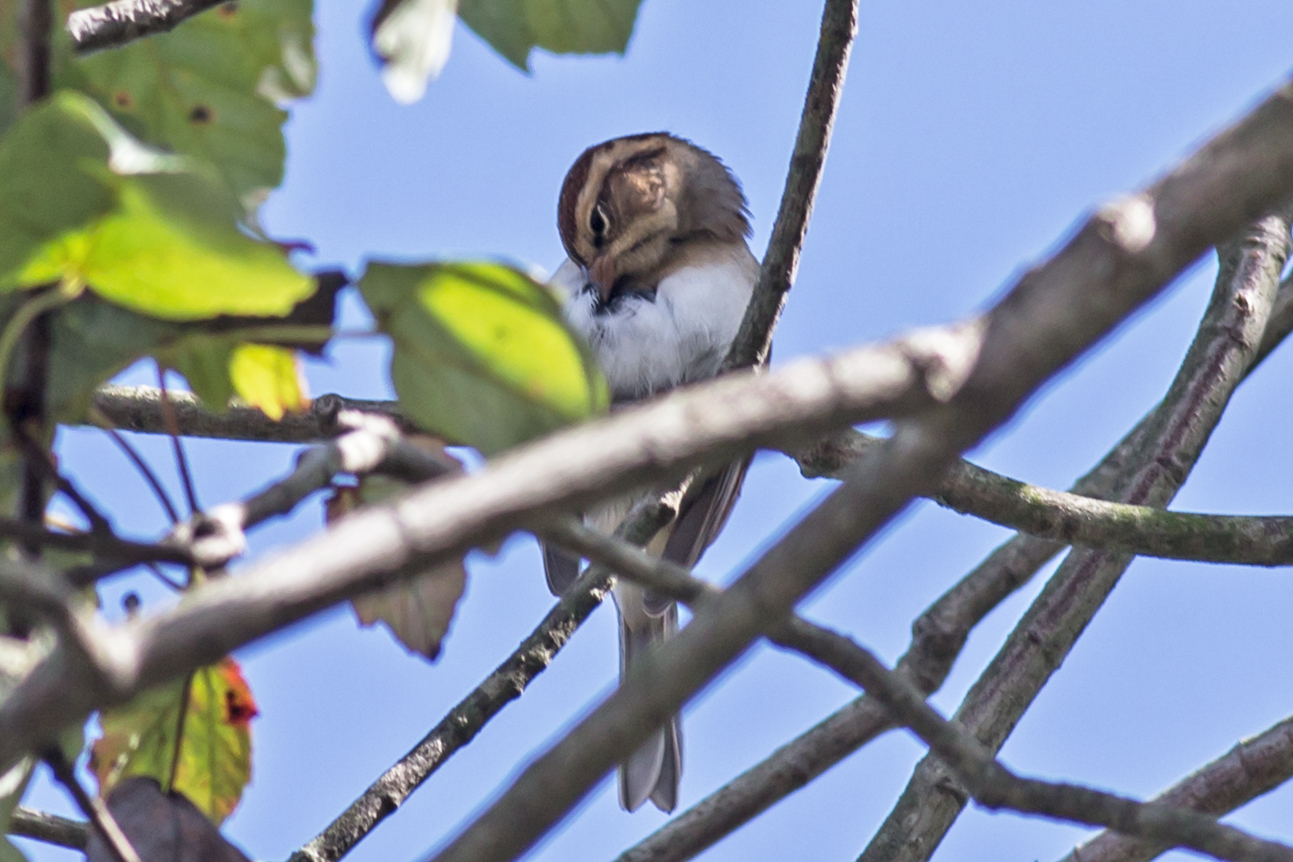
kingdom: Animalia
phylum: Chordata
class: Aves
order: Passeriformes
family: Passerellidae
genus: Spizella
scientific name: Spizella passerina
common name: Chipping sparrow
